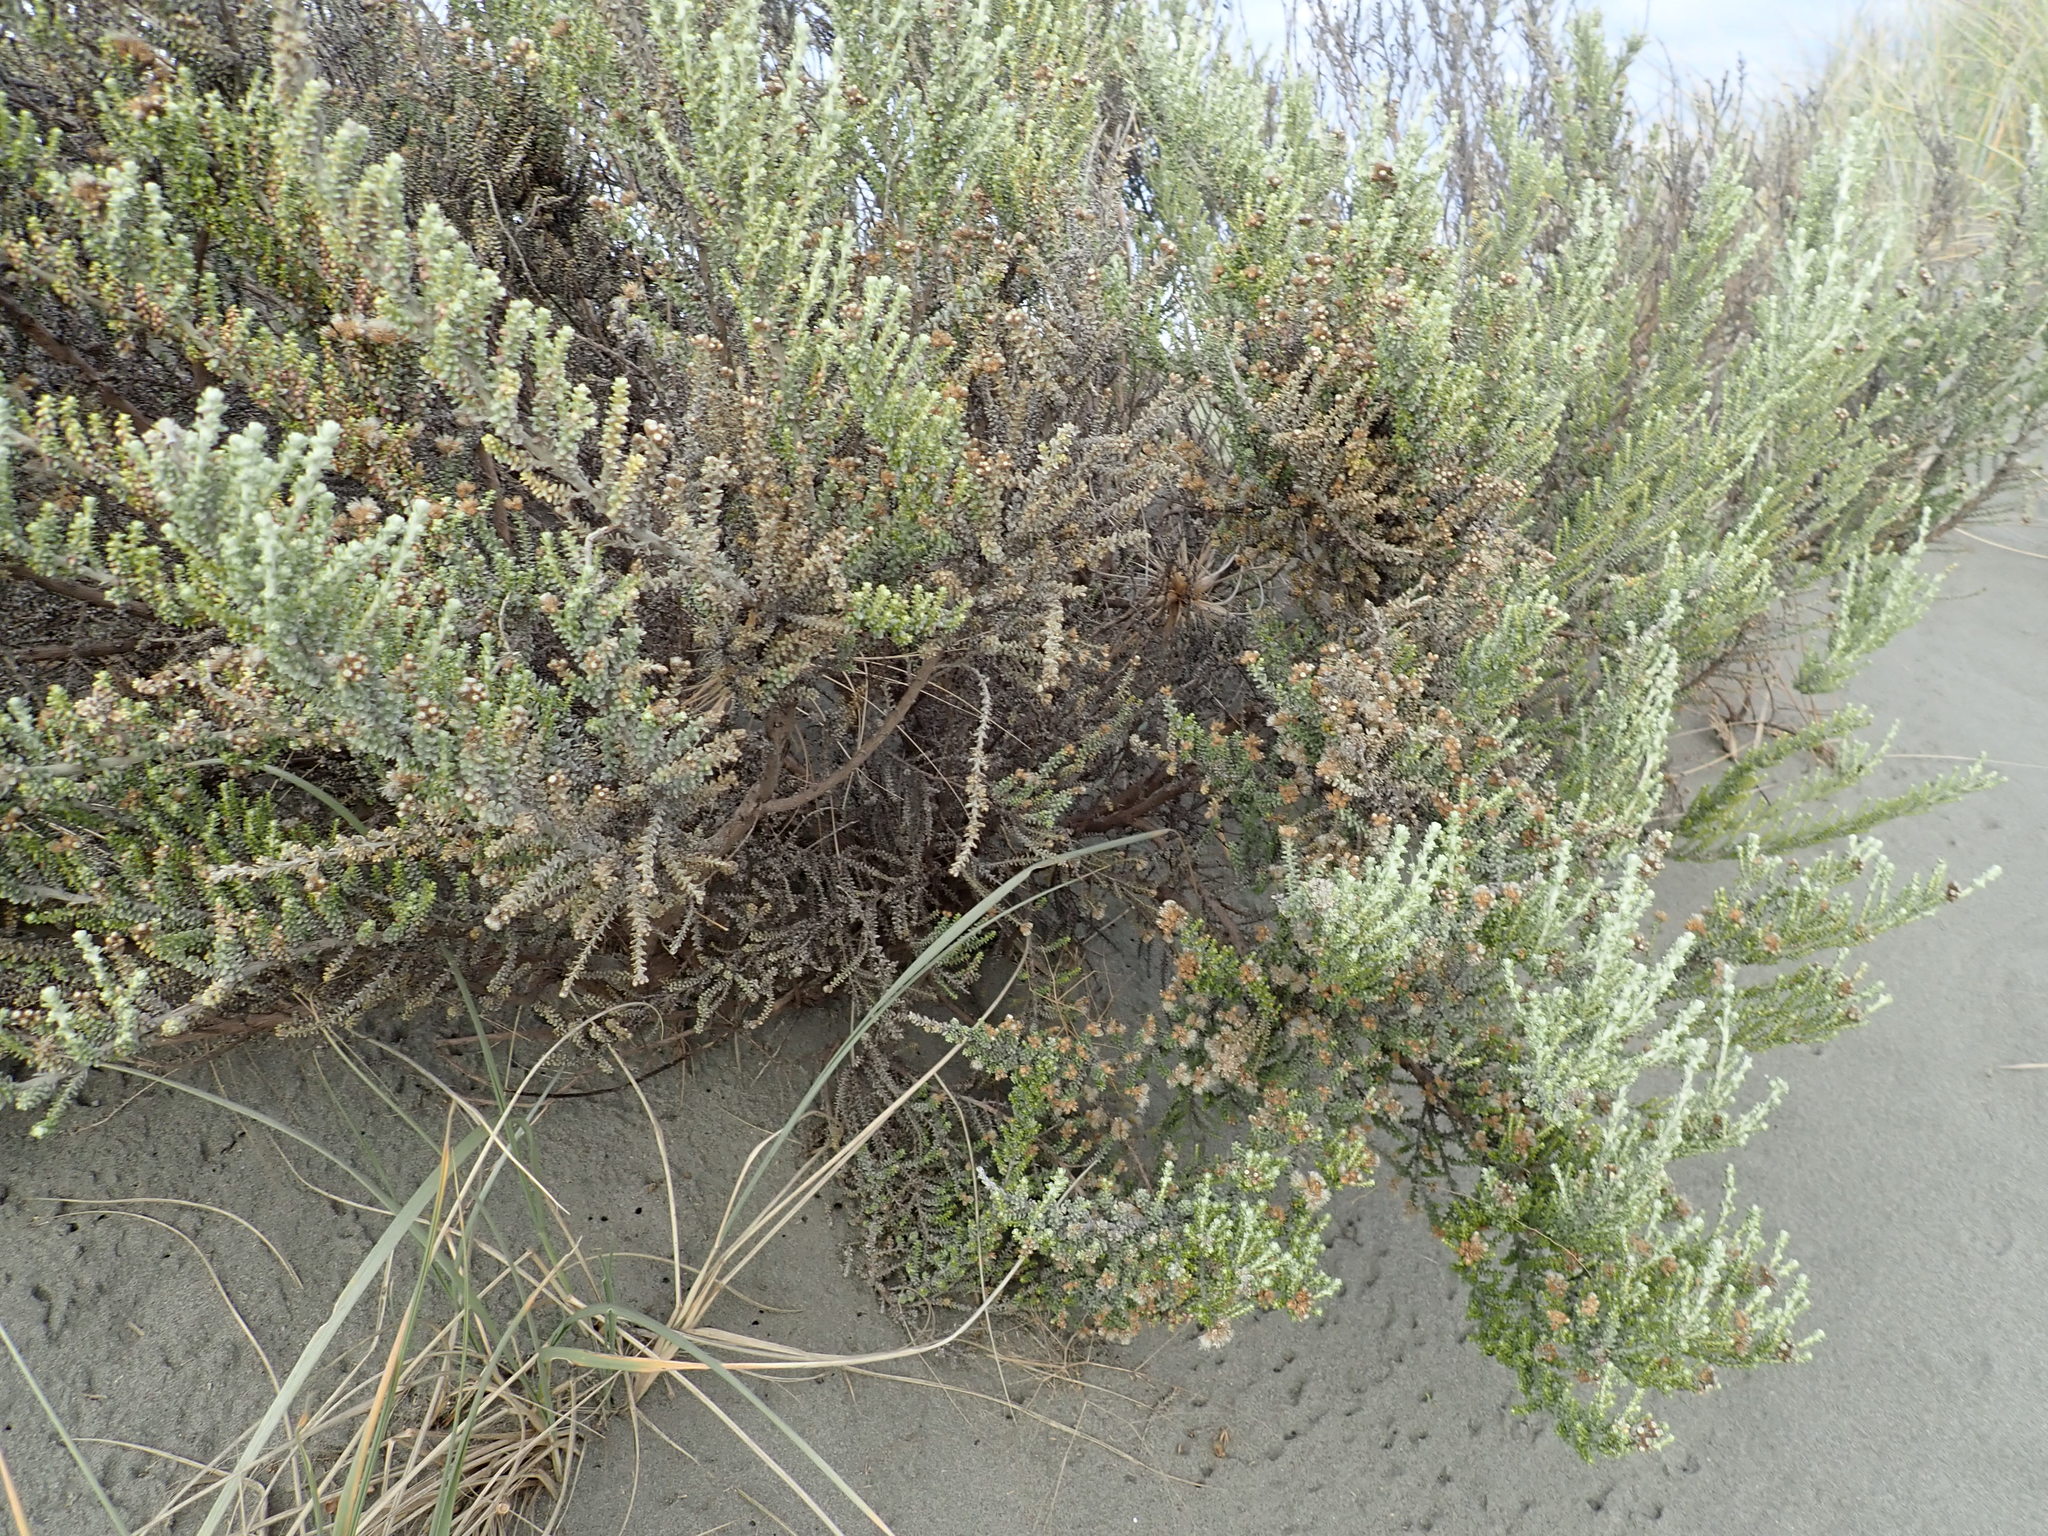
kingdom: Plantae
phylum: Tracheophyta
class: Magnoliopsida
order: Asterales
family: Asteraceae
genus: Ozothamnus
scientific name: Ozothamnus leptophyllus
